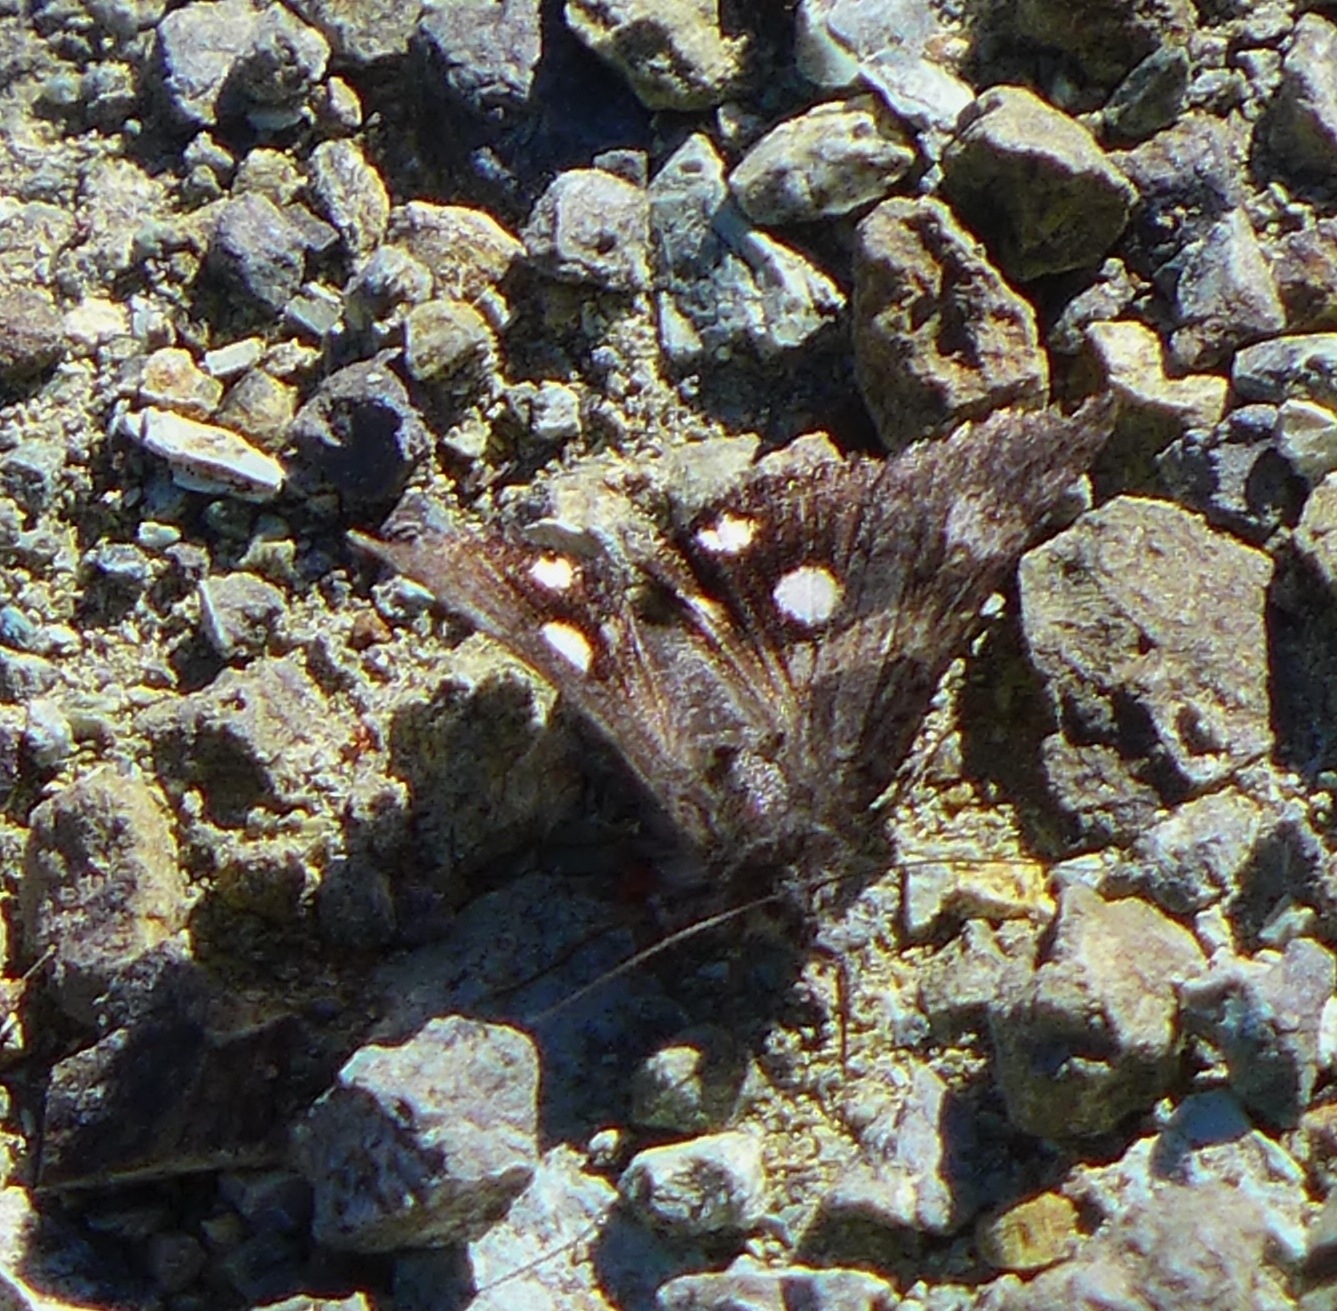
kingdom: Animalia
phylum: Arthropoda
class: Insecta
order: Lepidoptera
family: Erebidae
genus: Litocala
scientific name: Litocala sexsignata
